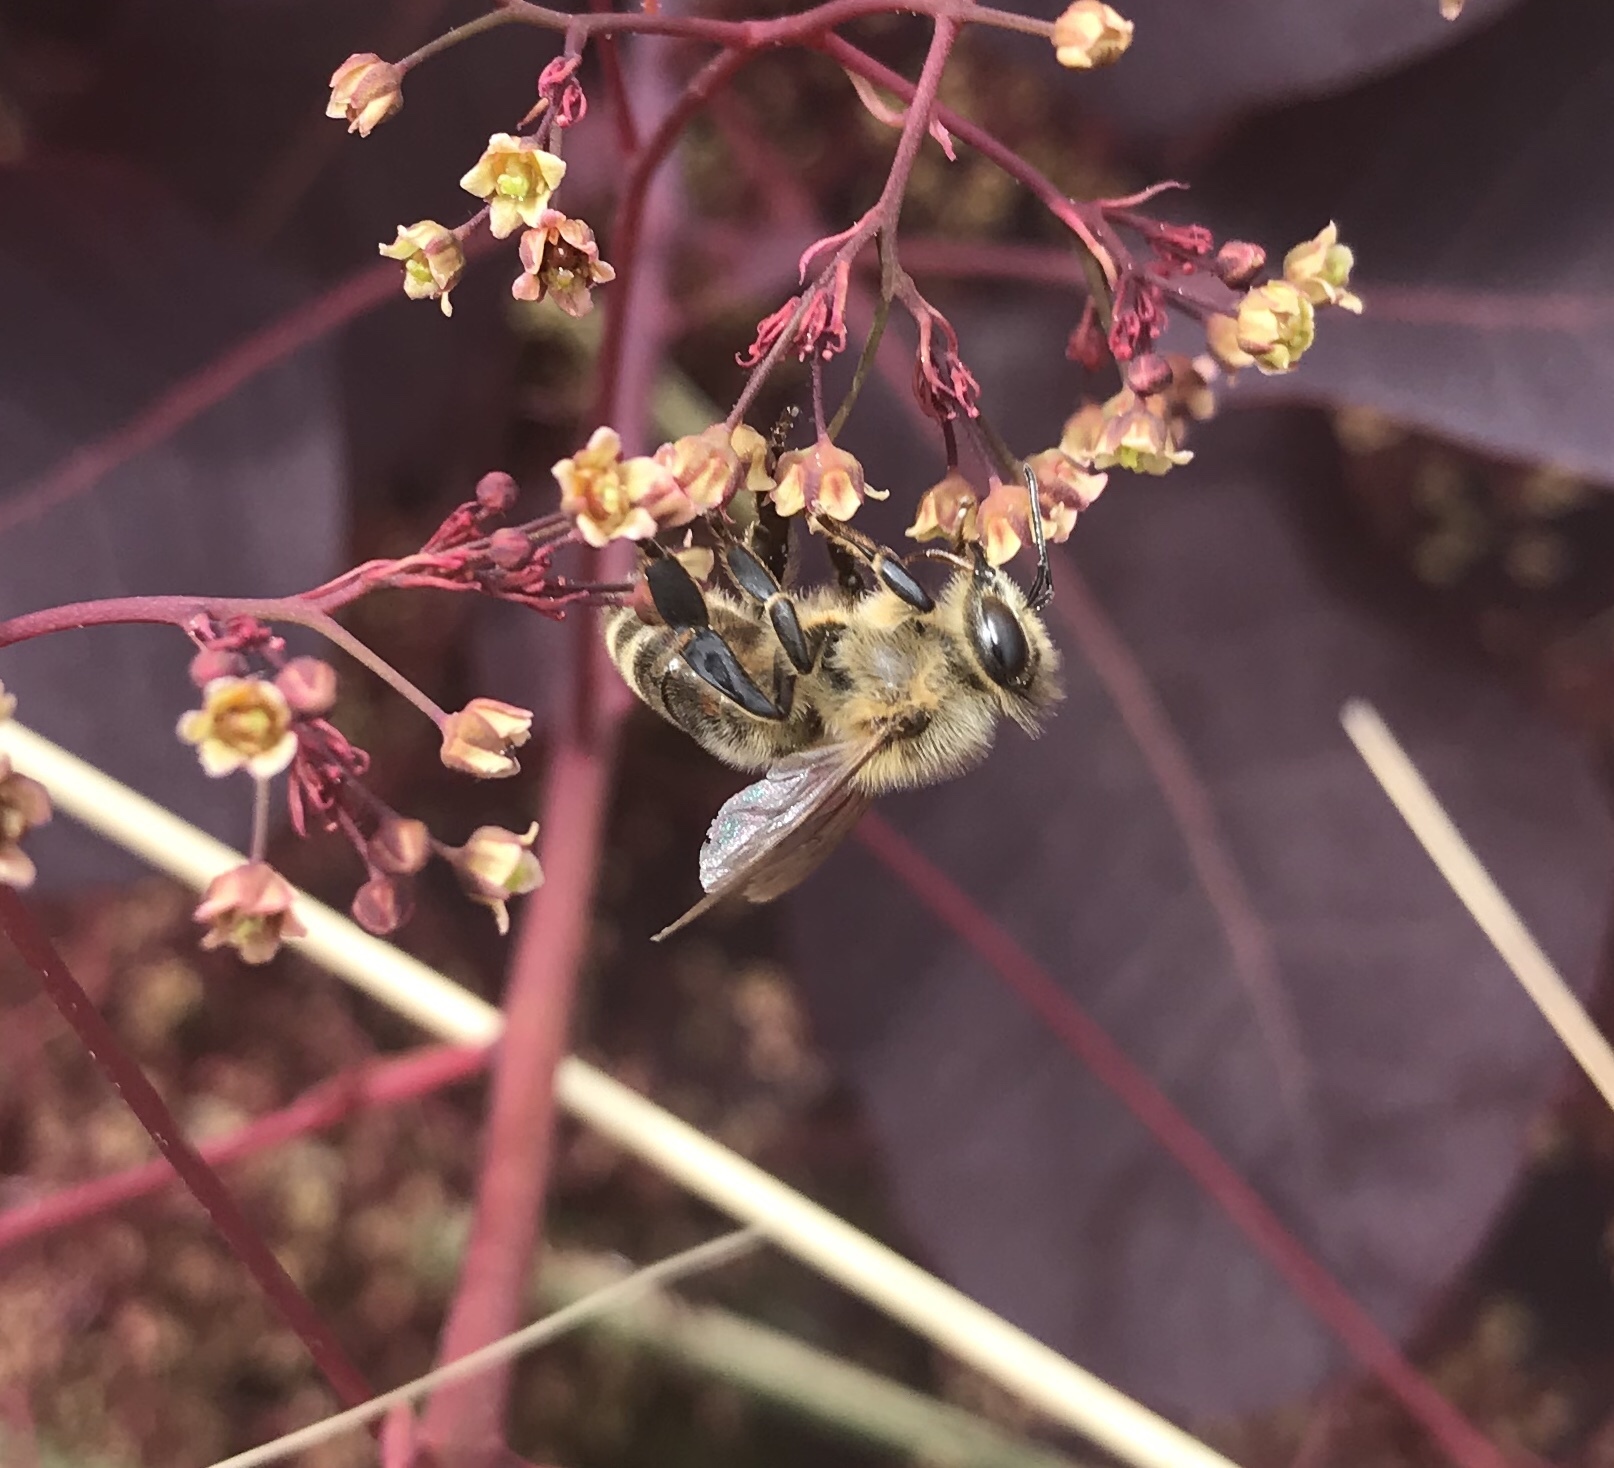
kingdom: Animalia
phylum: Arthropoda
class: Insecta
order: Hymenoptera
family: Apidae
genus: Apis
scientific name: Apis mellifera
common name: Honey bee
